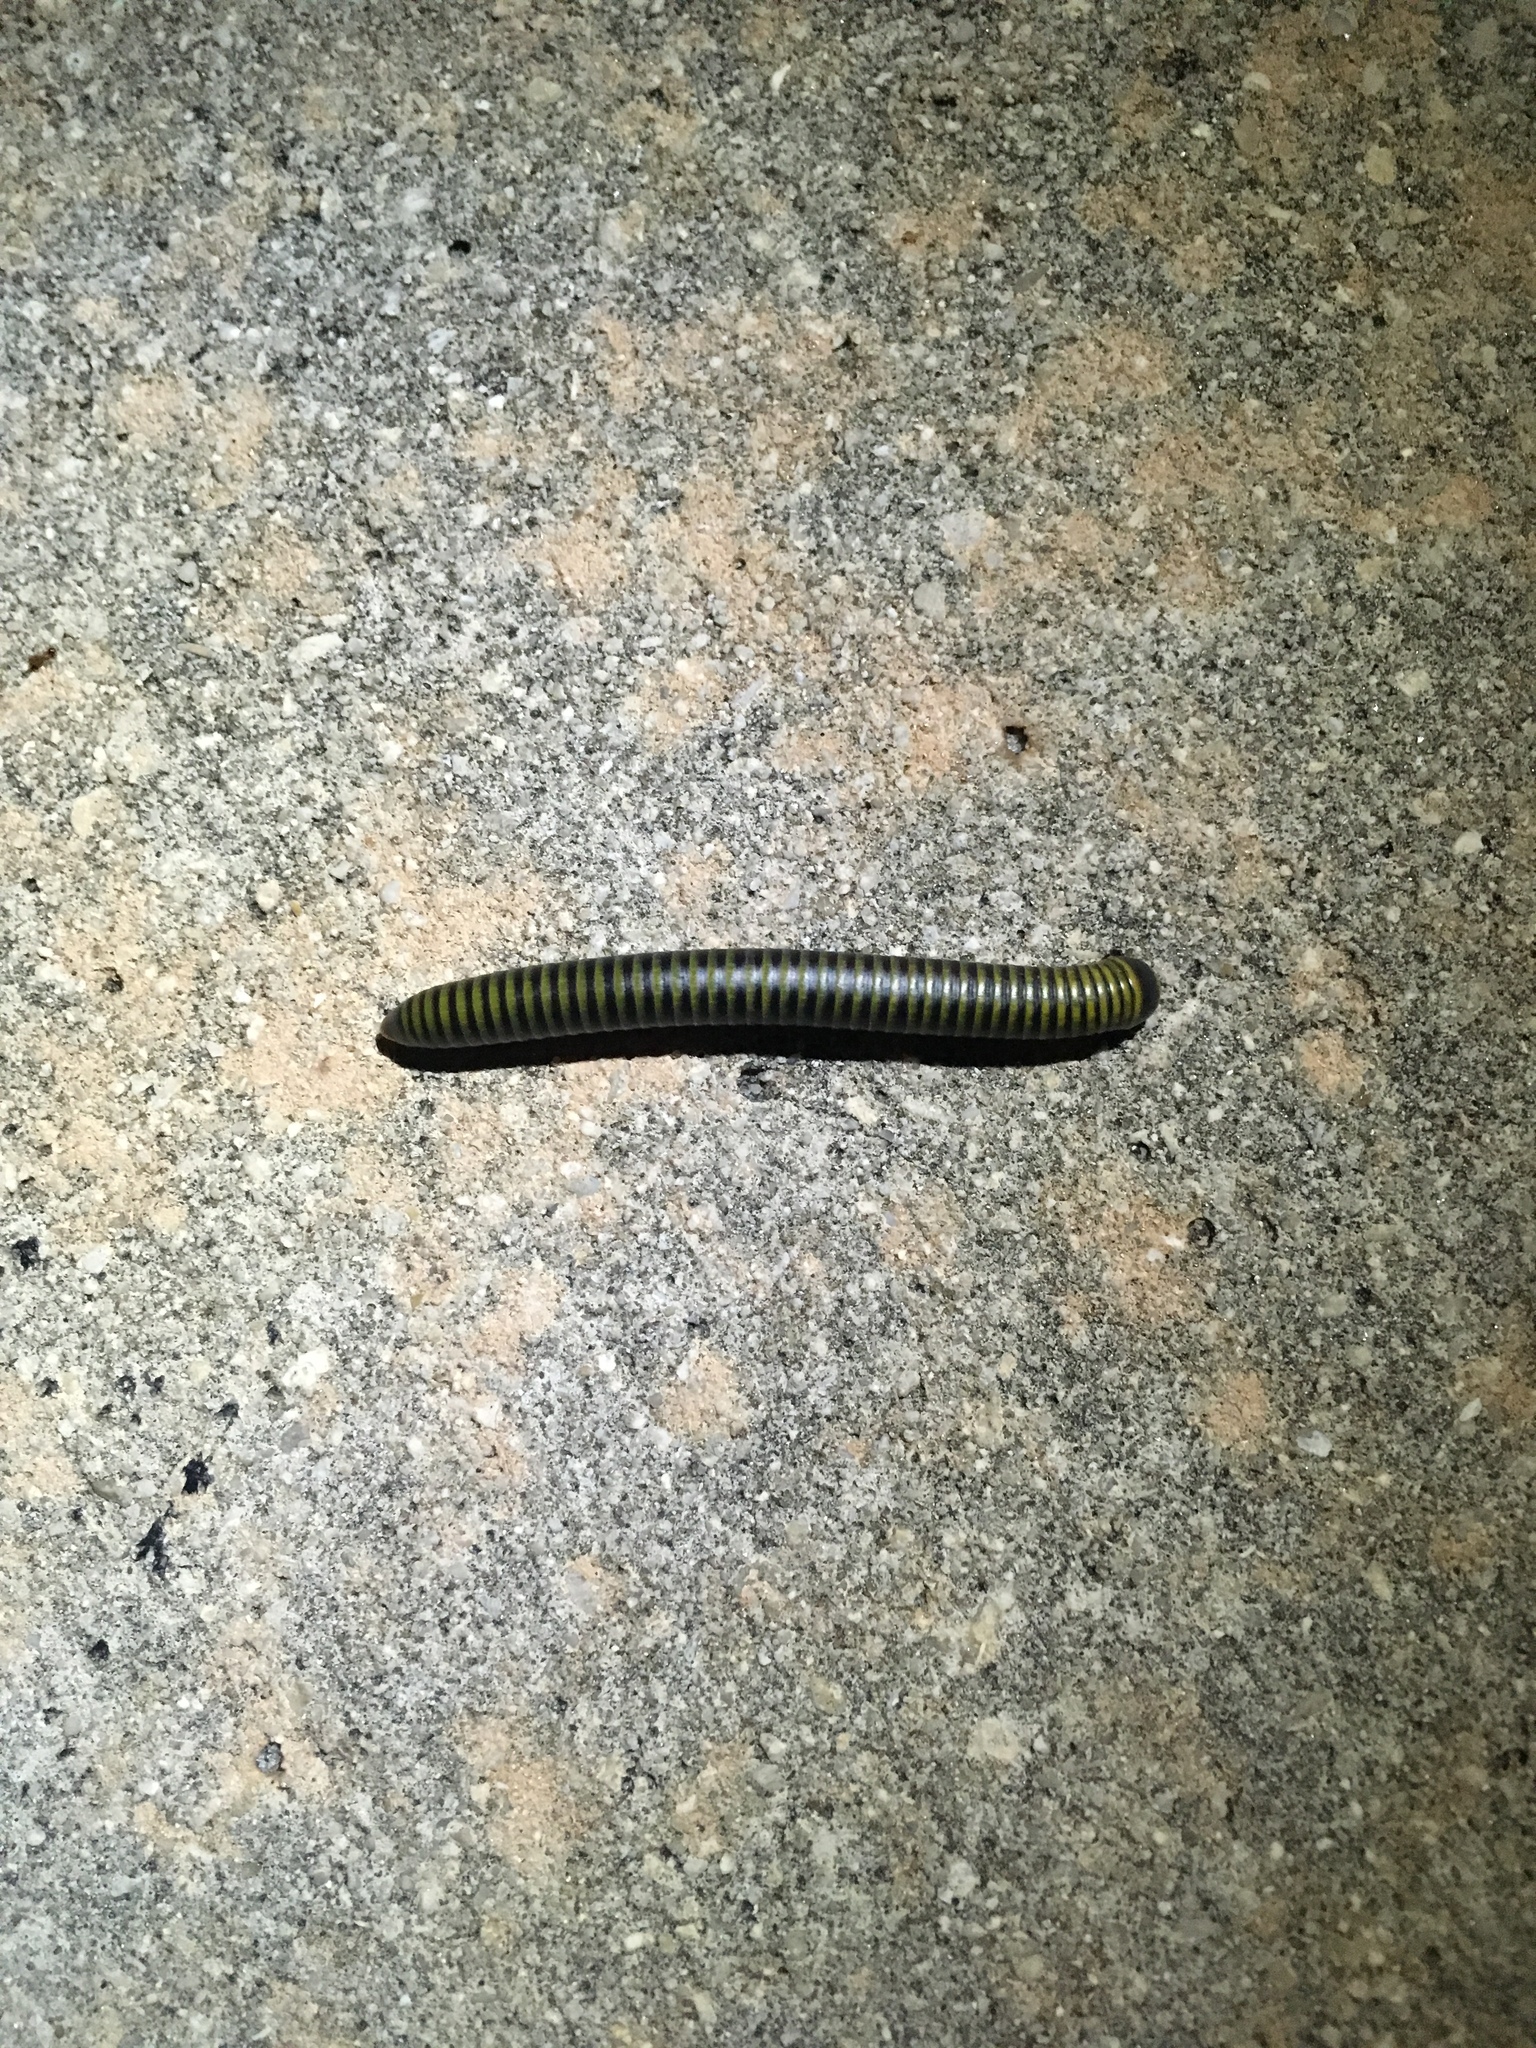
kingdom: Animalia
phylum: Arthropoda
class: Diplopoda
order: Spirobolida
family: Rhinocricidae
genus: Anadenobolus
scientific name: Anadenobolus monilicornis
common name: Caribbean millipede
